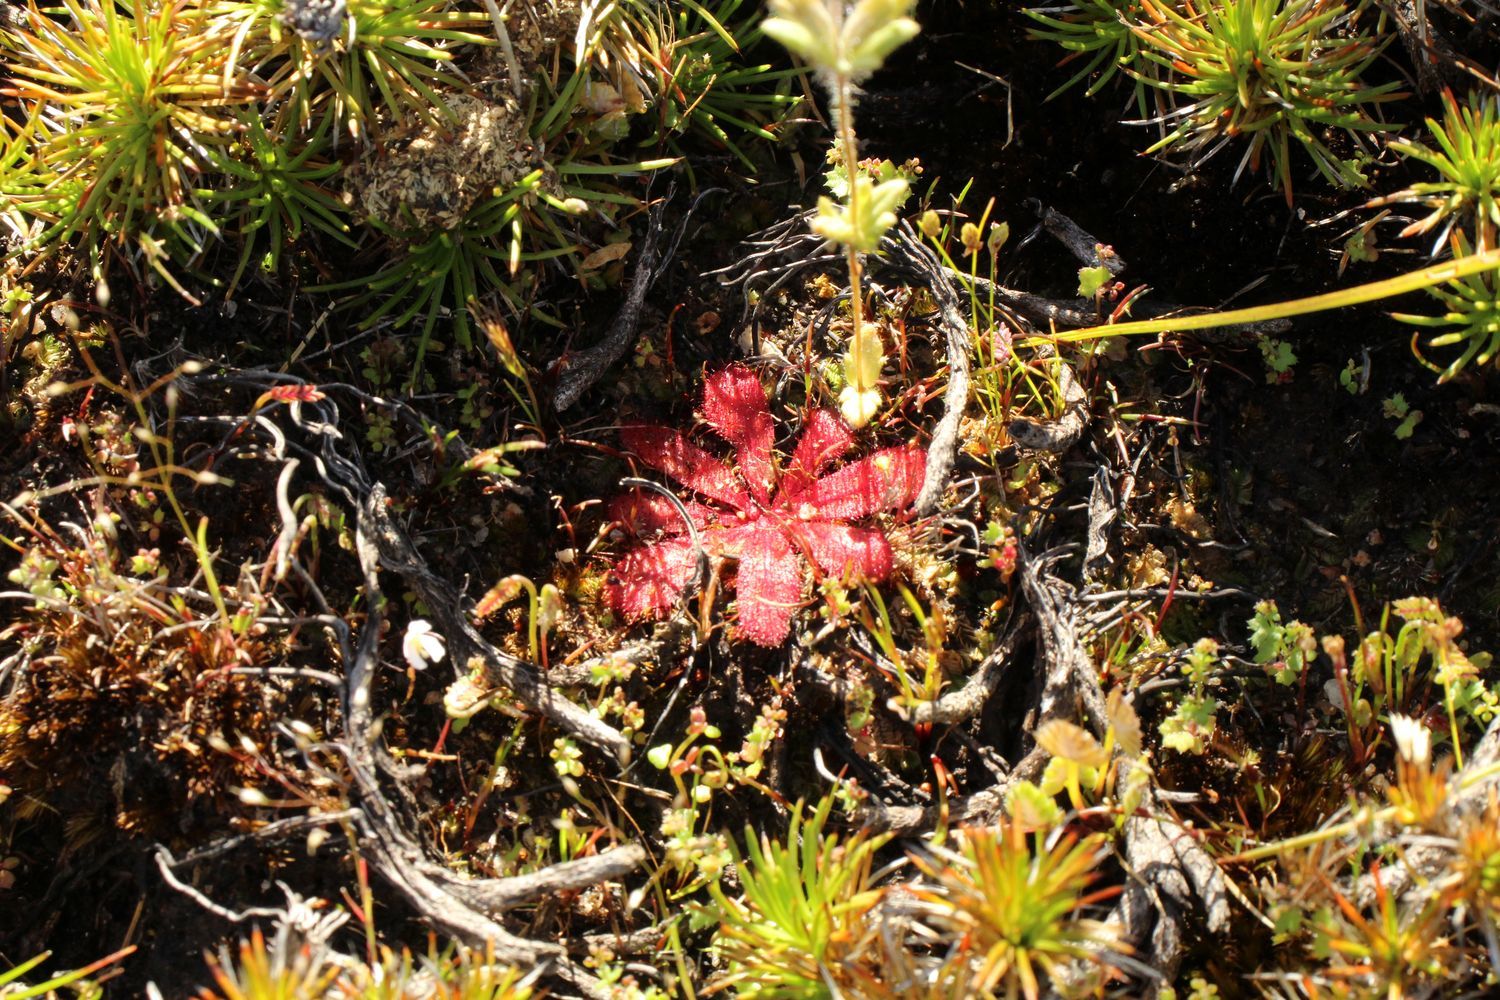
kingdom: Plantae
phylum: Tracheophyta
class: Magnoliopsida
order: Caryophyllales
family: Droseraceae
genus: Drosera
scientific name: Drosera bulbosa
